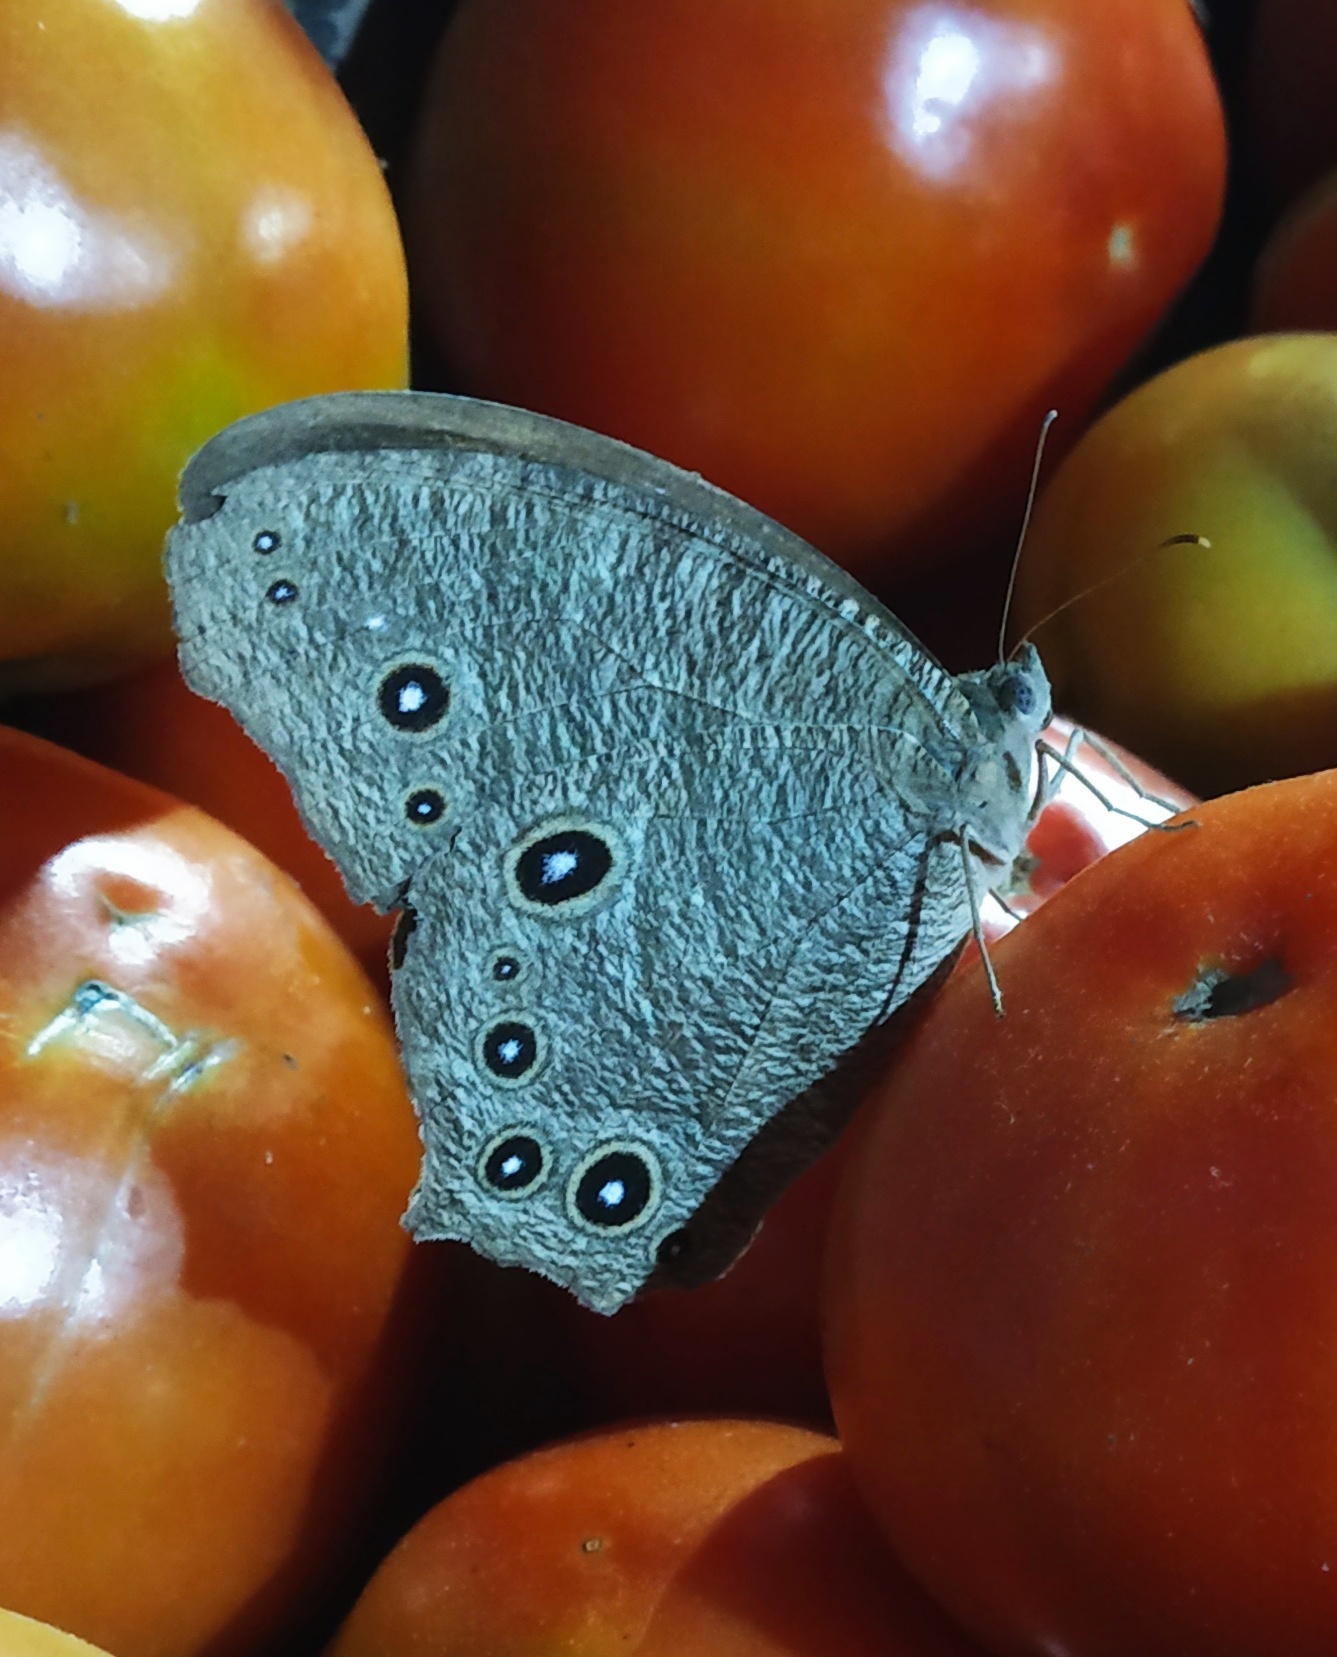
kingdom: Animalia
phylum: Arthropoda
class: Insecta
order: Lepidoptera
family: Nymphalidae
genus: Melanitis
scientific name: Melanitis leda
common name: Twilight brown
